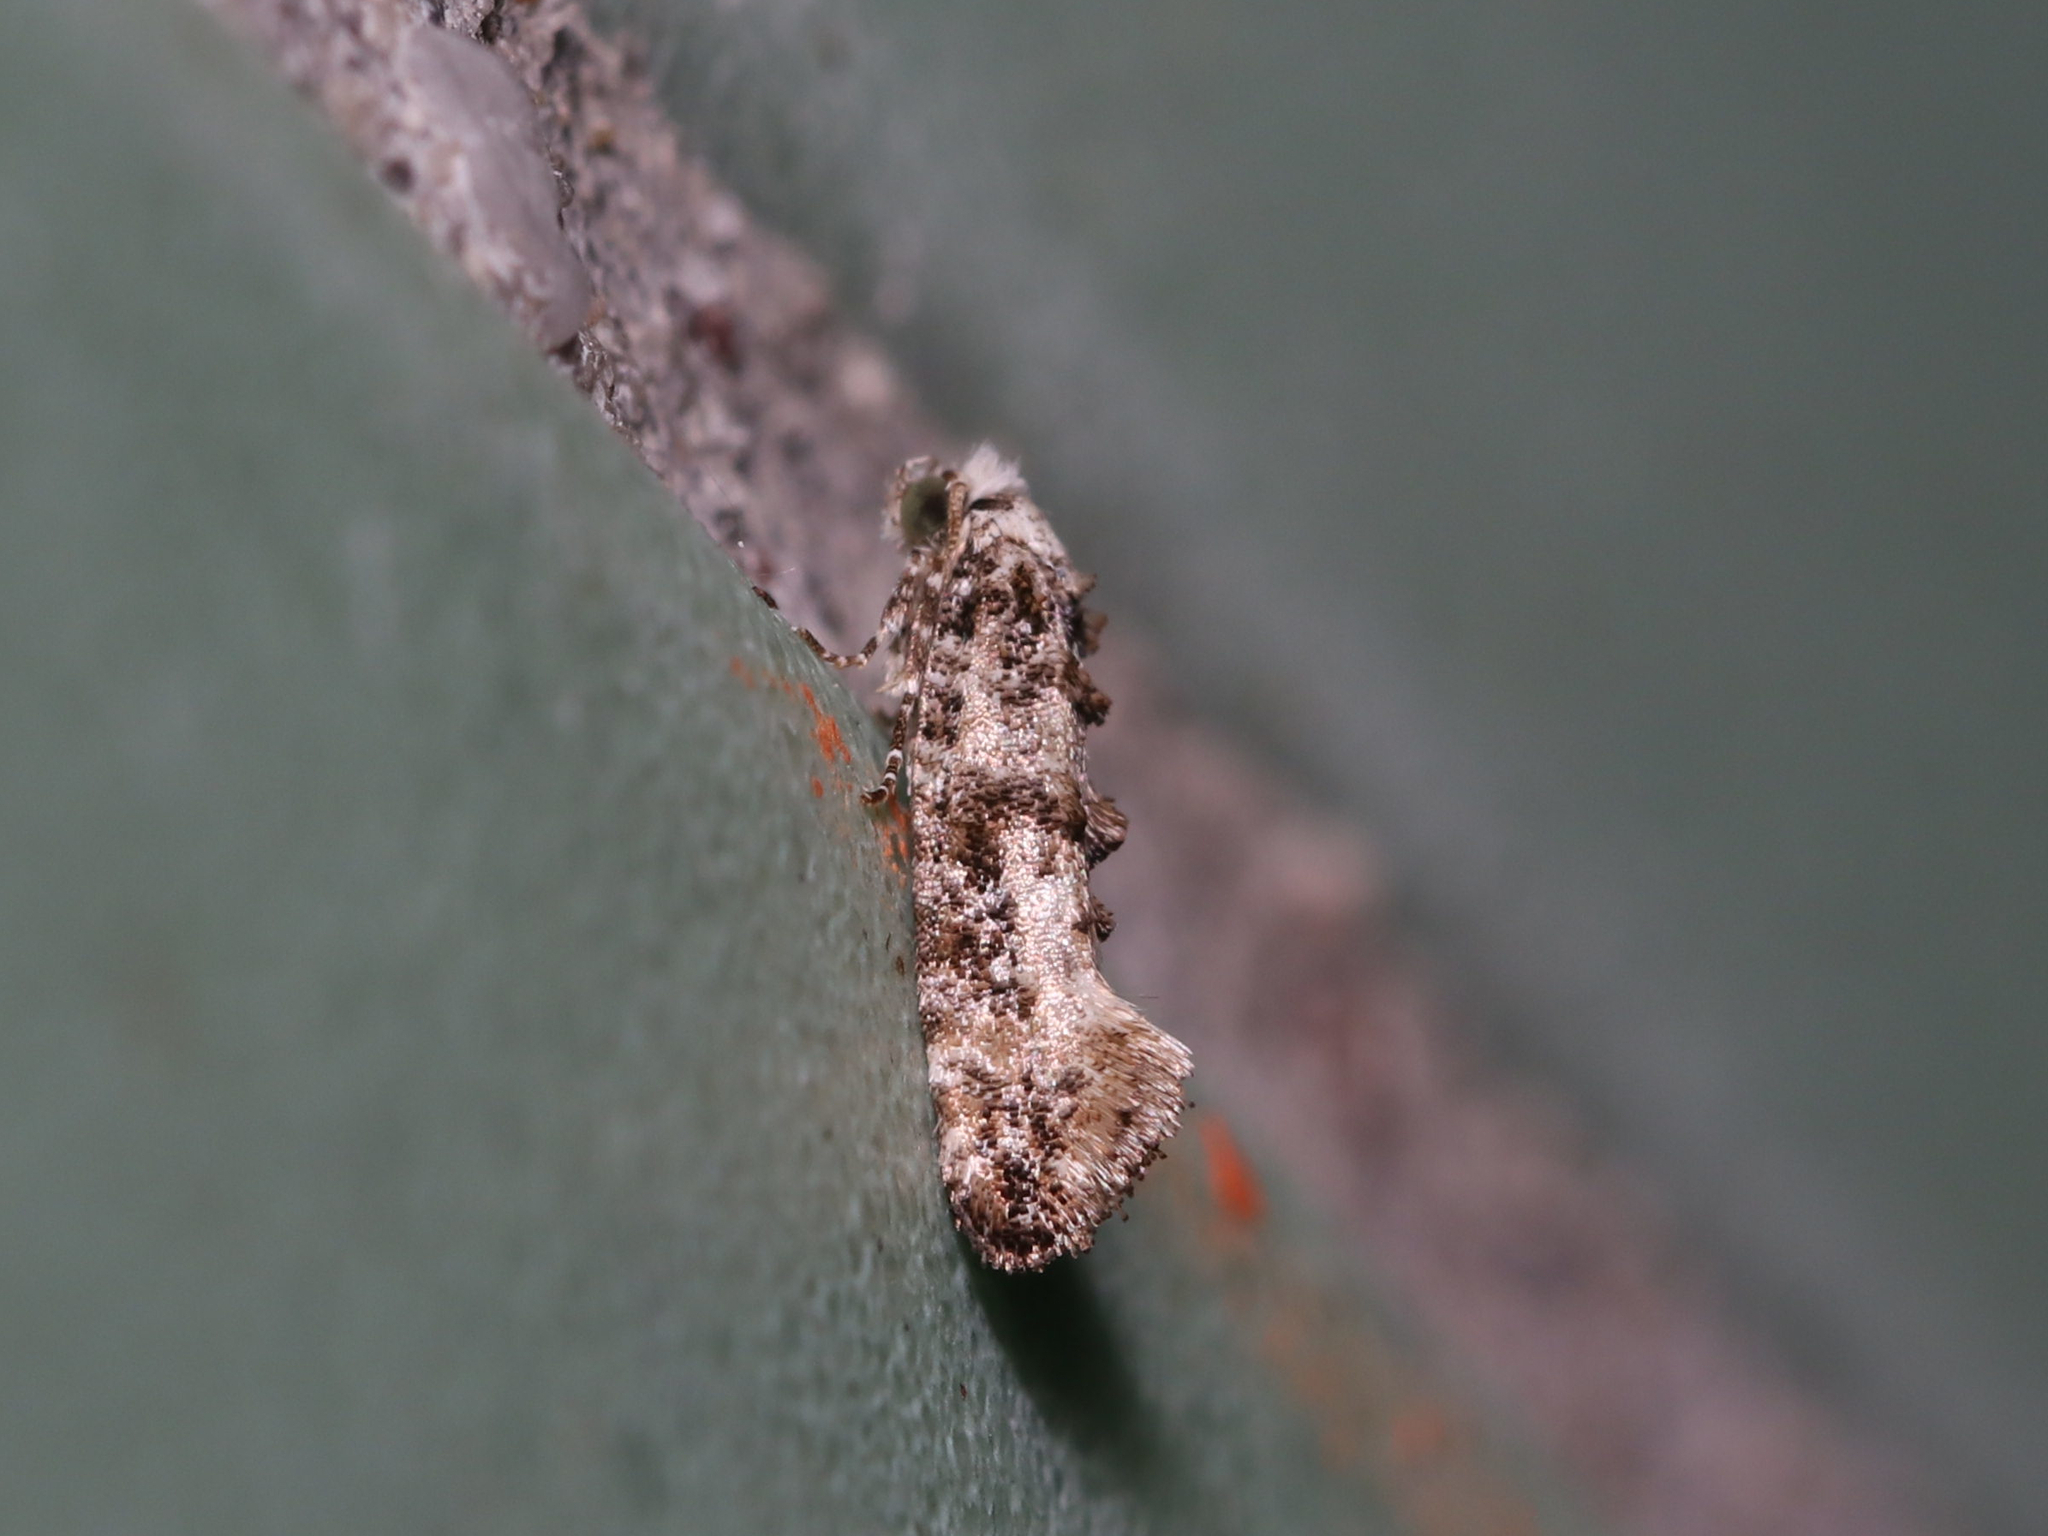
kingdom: Animalia
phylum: Arthropoda
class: Insecta
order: Lepidoptera
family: Tineidae
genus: Xylesthia
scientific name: Xylesthia pruniramiella
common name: Clemens' bark moth
